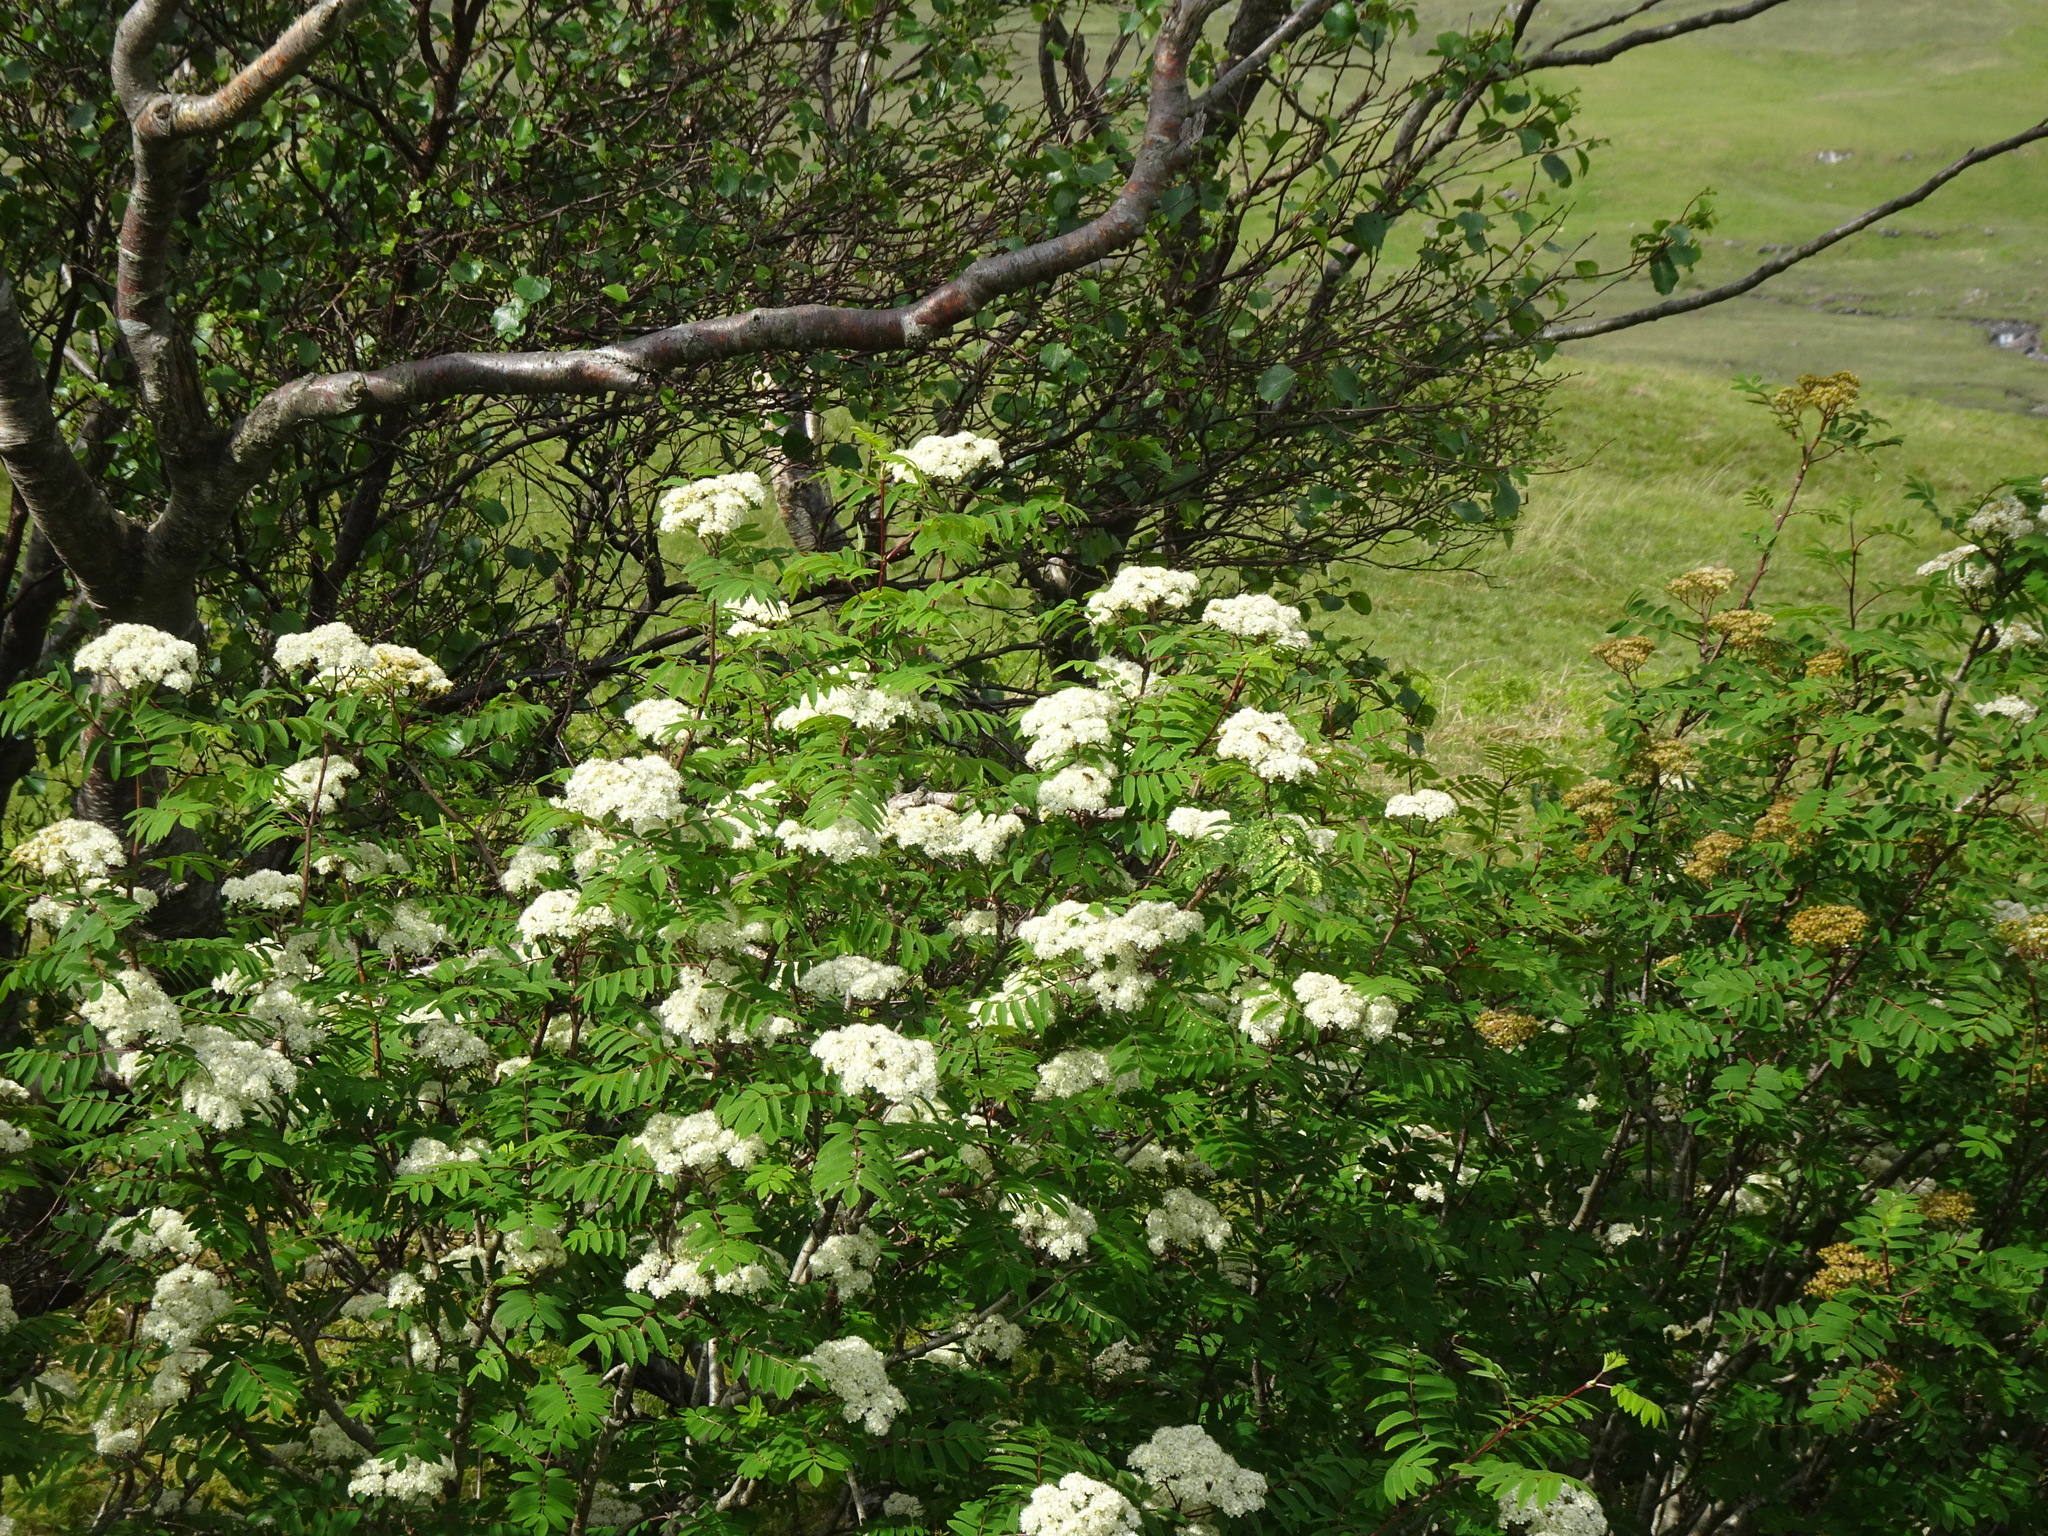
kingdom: Plantae
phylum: Tracheophyta
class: Magnoliopsida
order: Rosales
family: Rosaceae
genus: Sorbus
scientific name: Sorbus aucuparia
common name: Rowan
